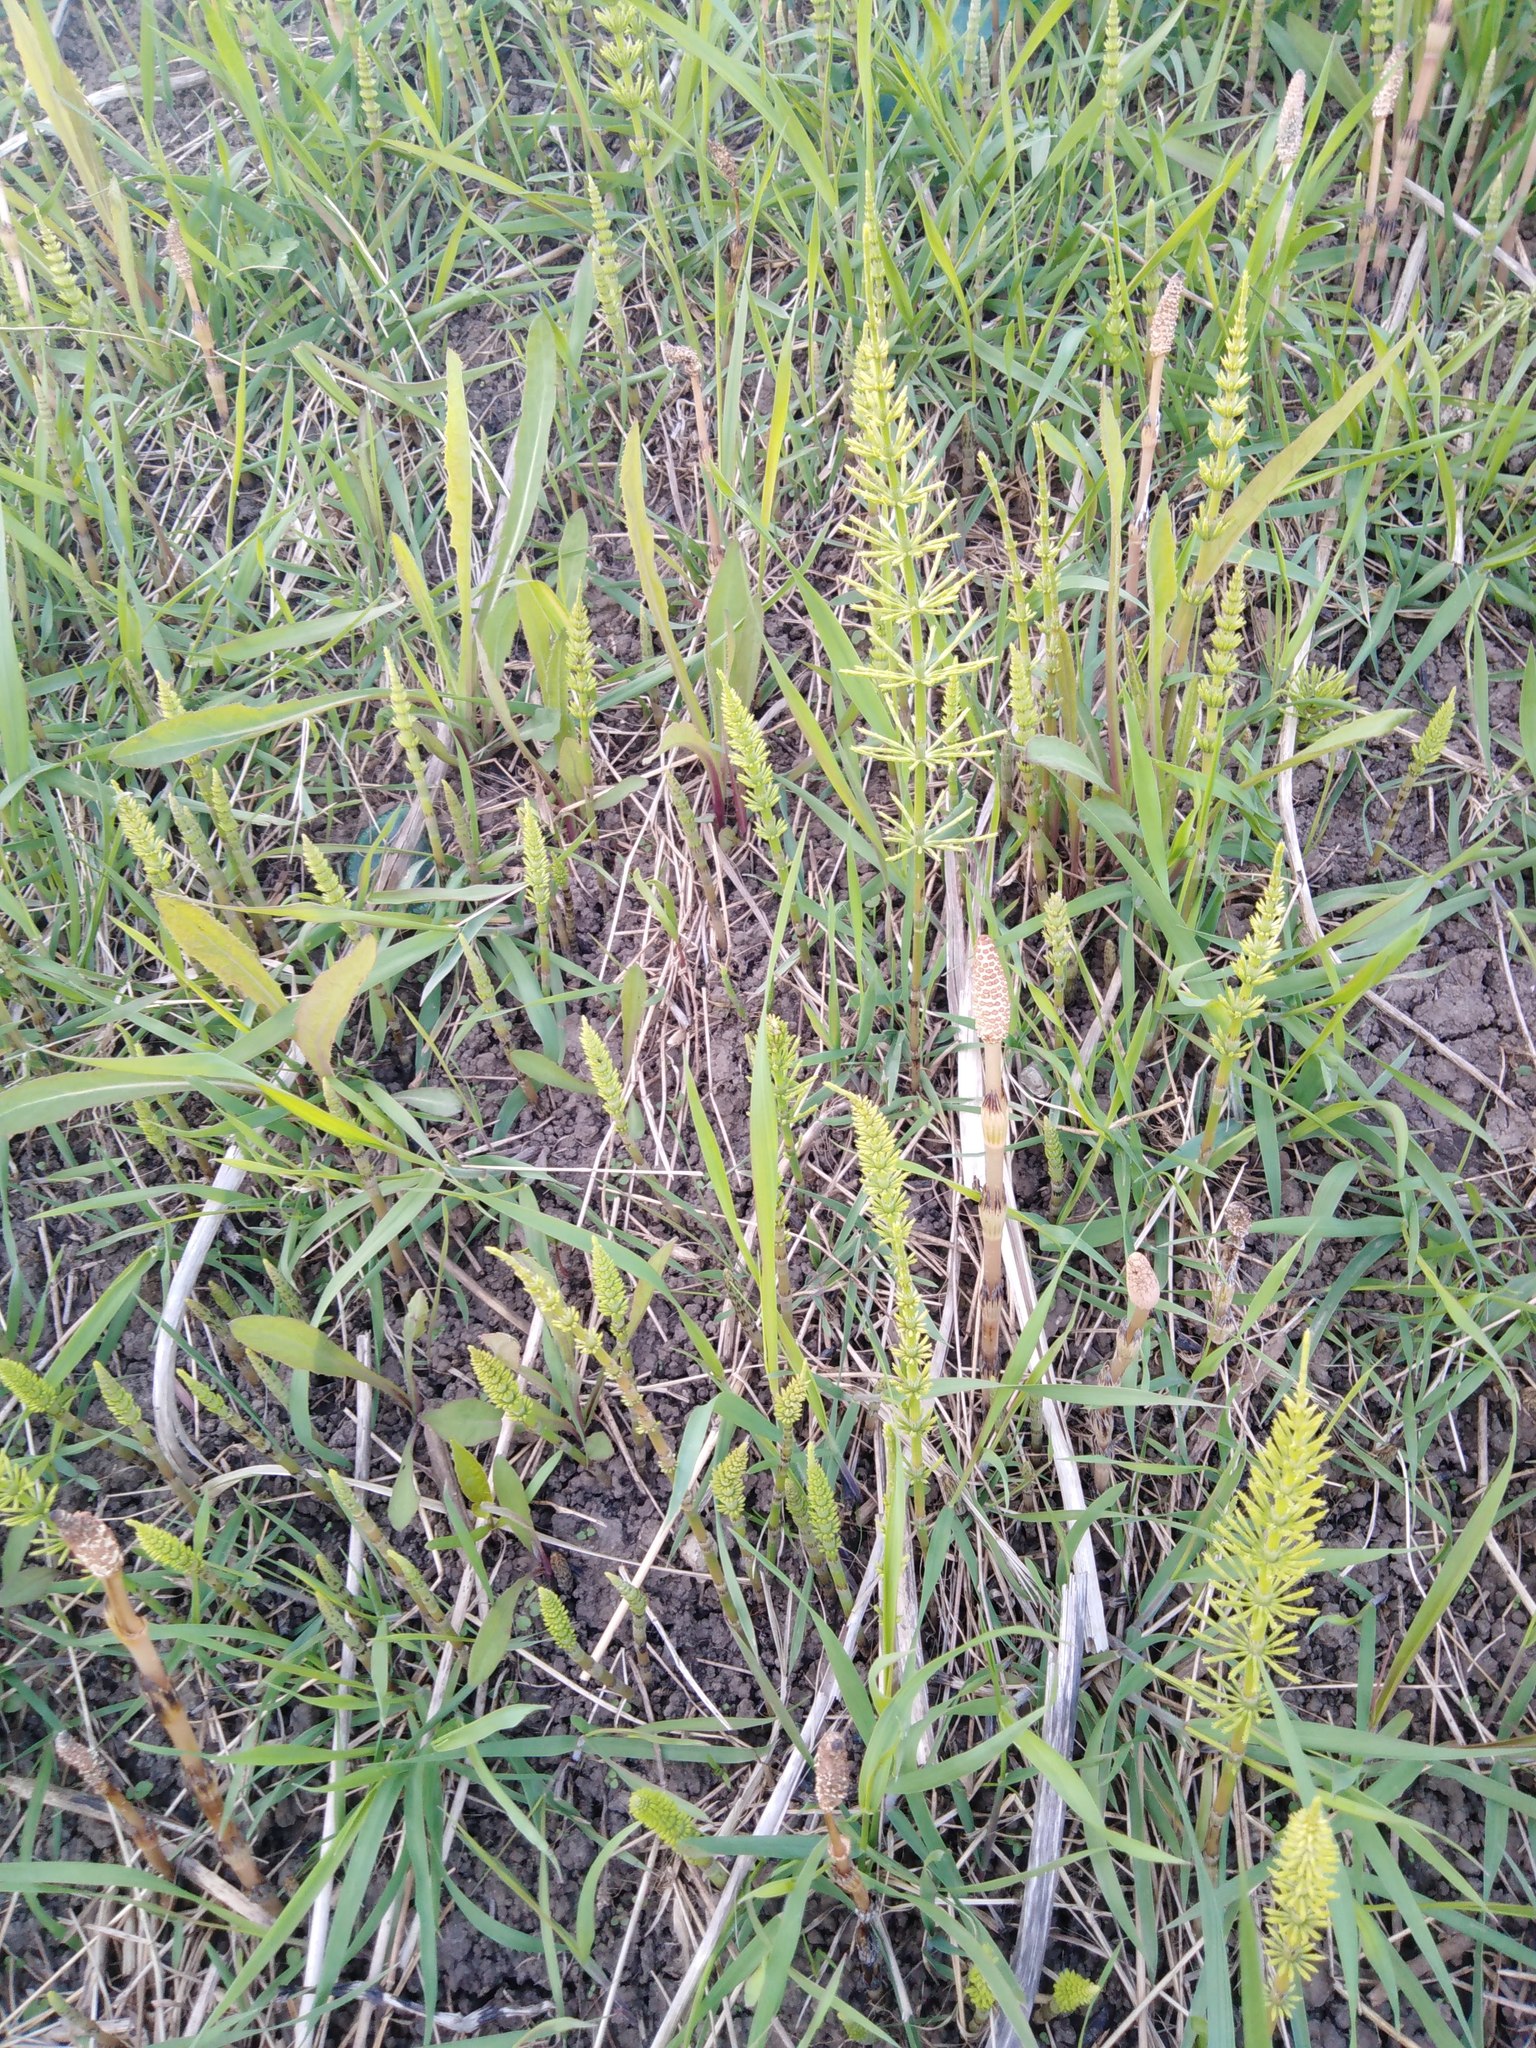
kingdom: Plantae
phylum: Tracheophyta
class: Polypodiopsida
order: Equisetales
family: Equisetaceae
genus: Equisetum
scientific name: Equisetum arvense
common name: Field horsetail
